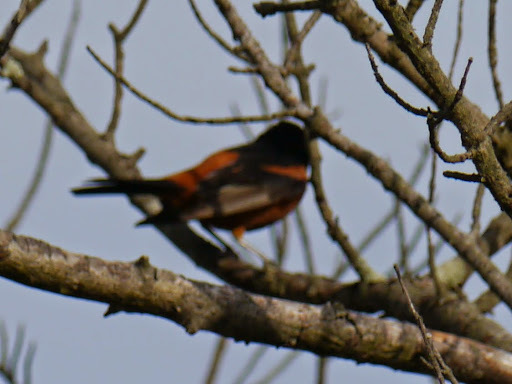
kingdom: Animalia
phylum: Chordata
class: Aves
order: Passeriformes
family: Icteridae
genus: Icterus
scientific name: Icterus spurius
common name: Orchard oriole
